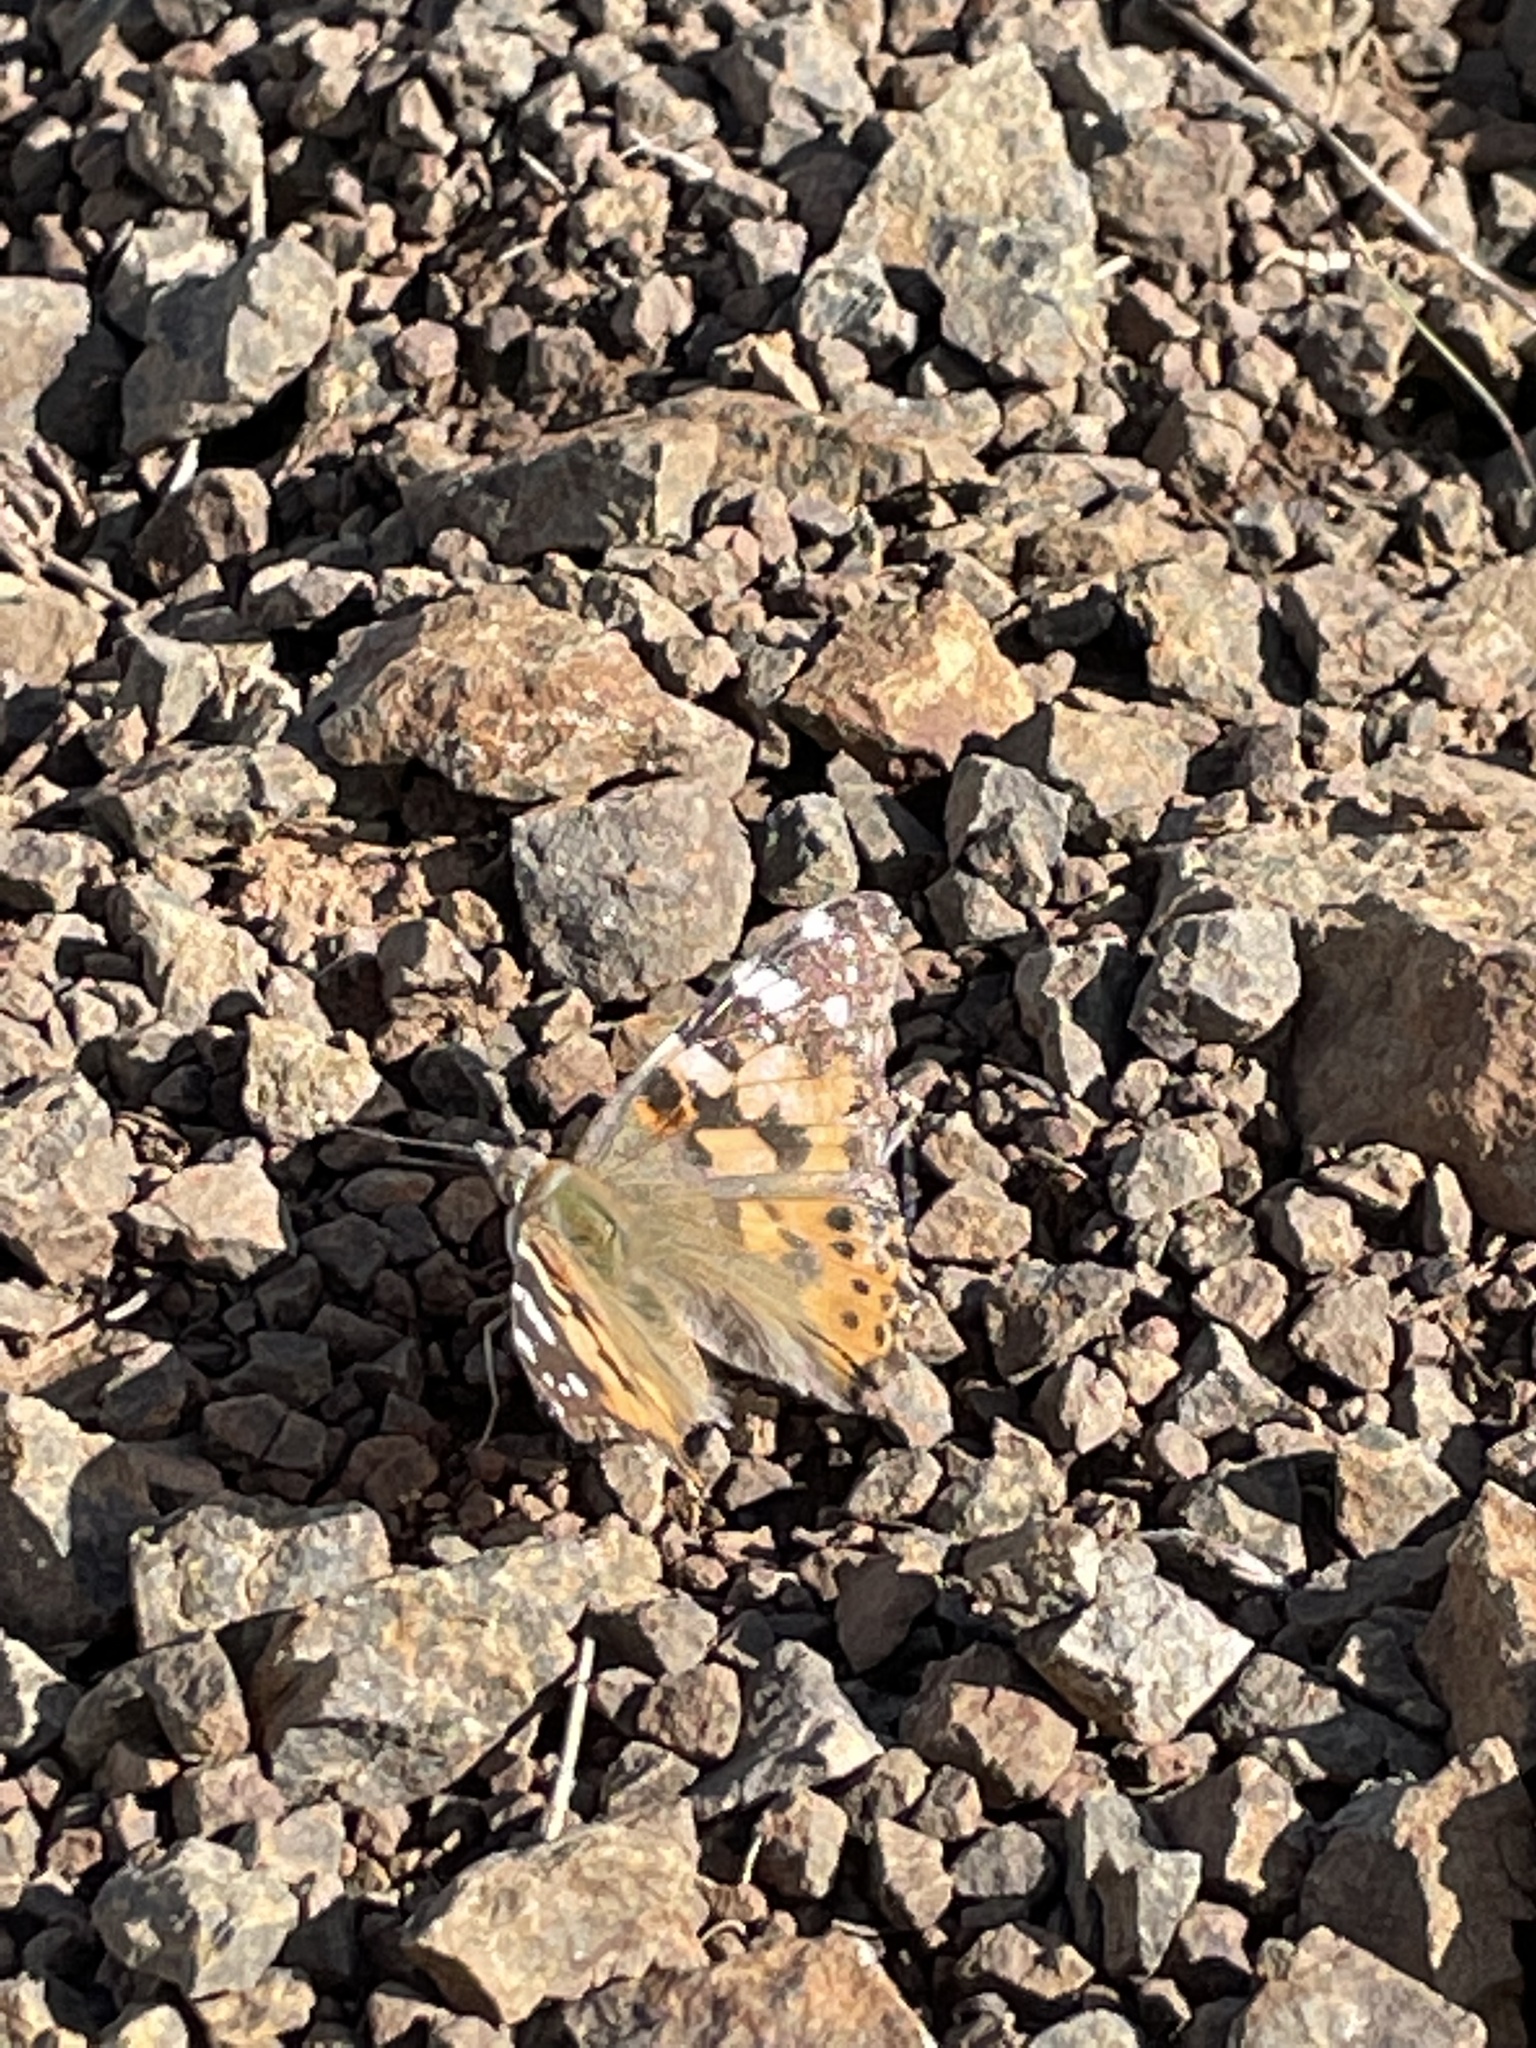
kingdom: Animalia
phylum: Arthropoda
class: Insecta
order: Lepidoptera
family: Nymphalidae
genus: Vanessa
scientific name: Vanessa cardui
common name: Painted lady
